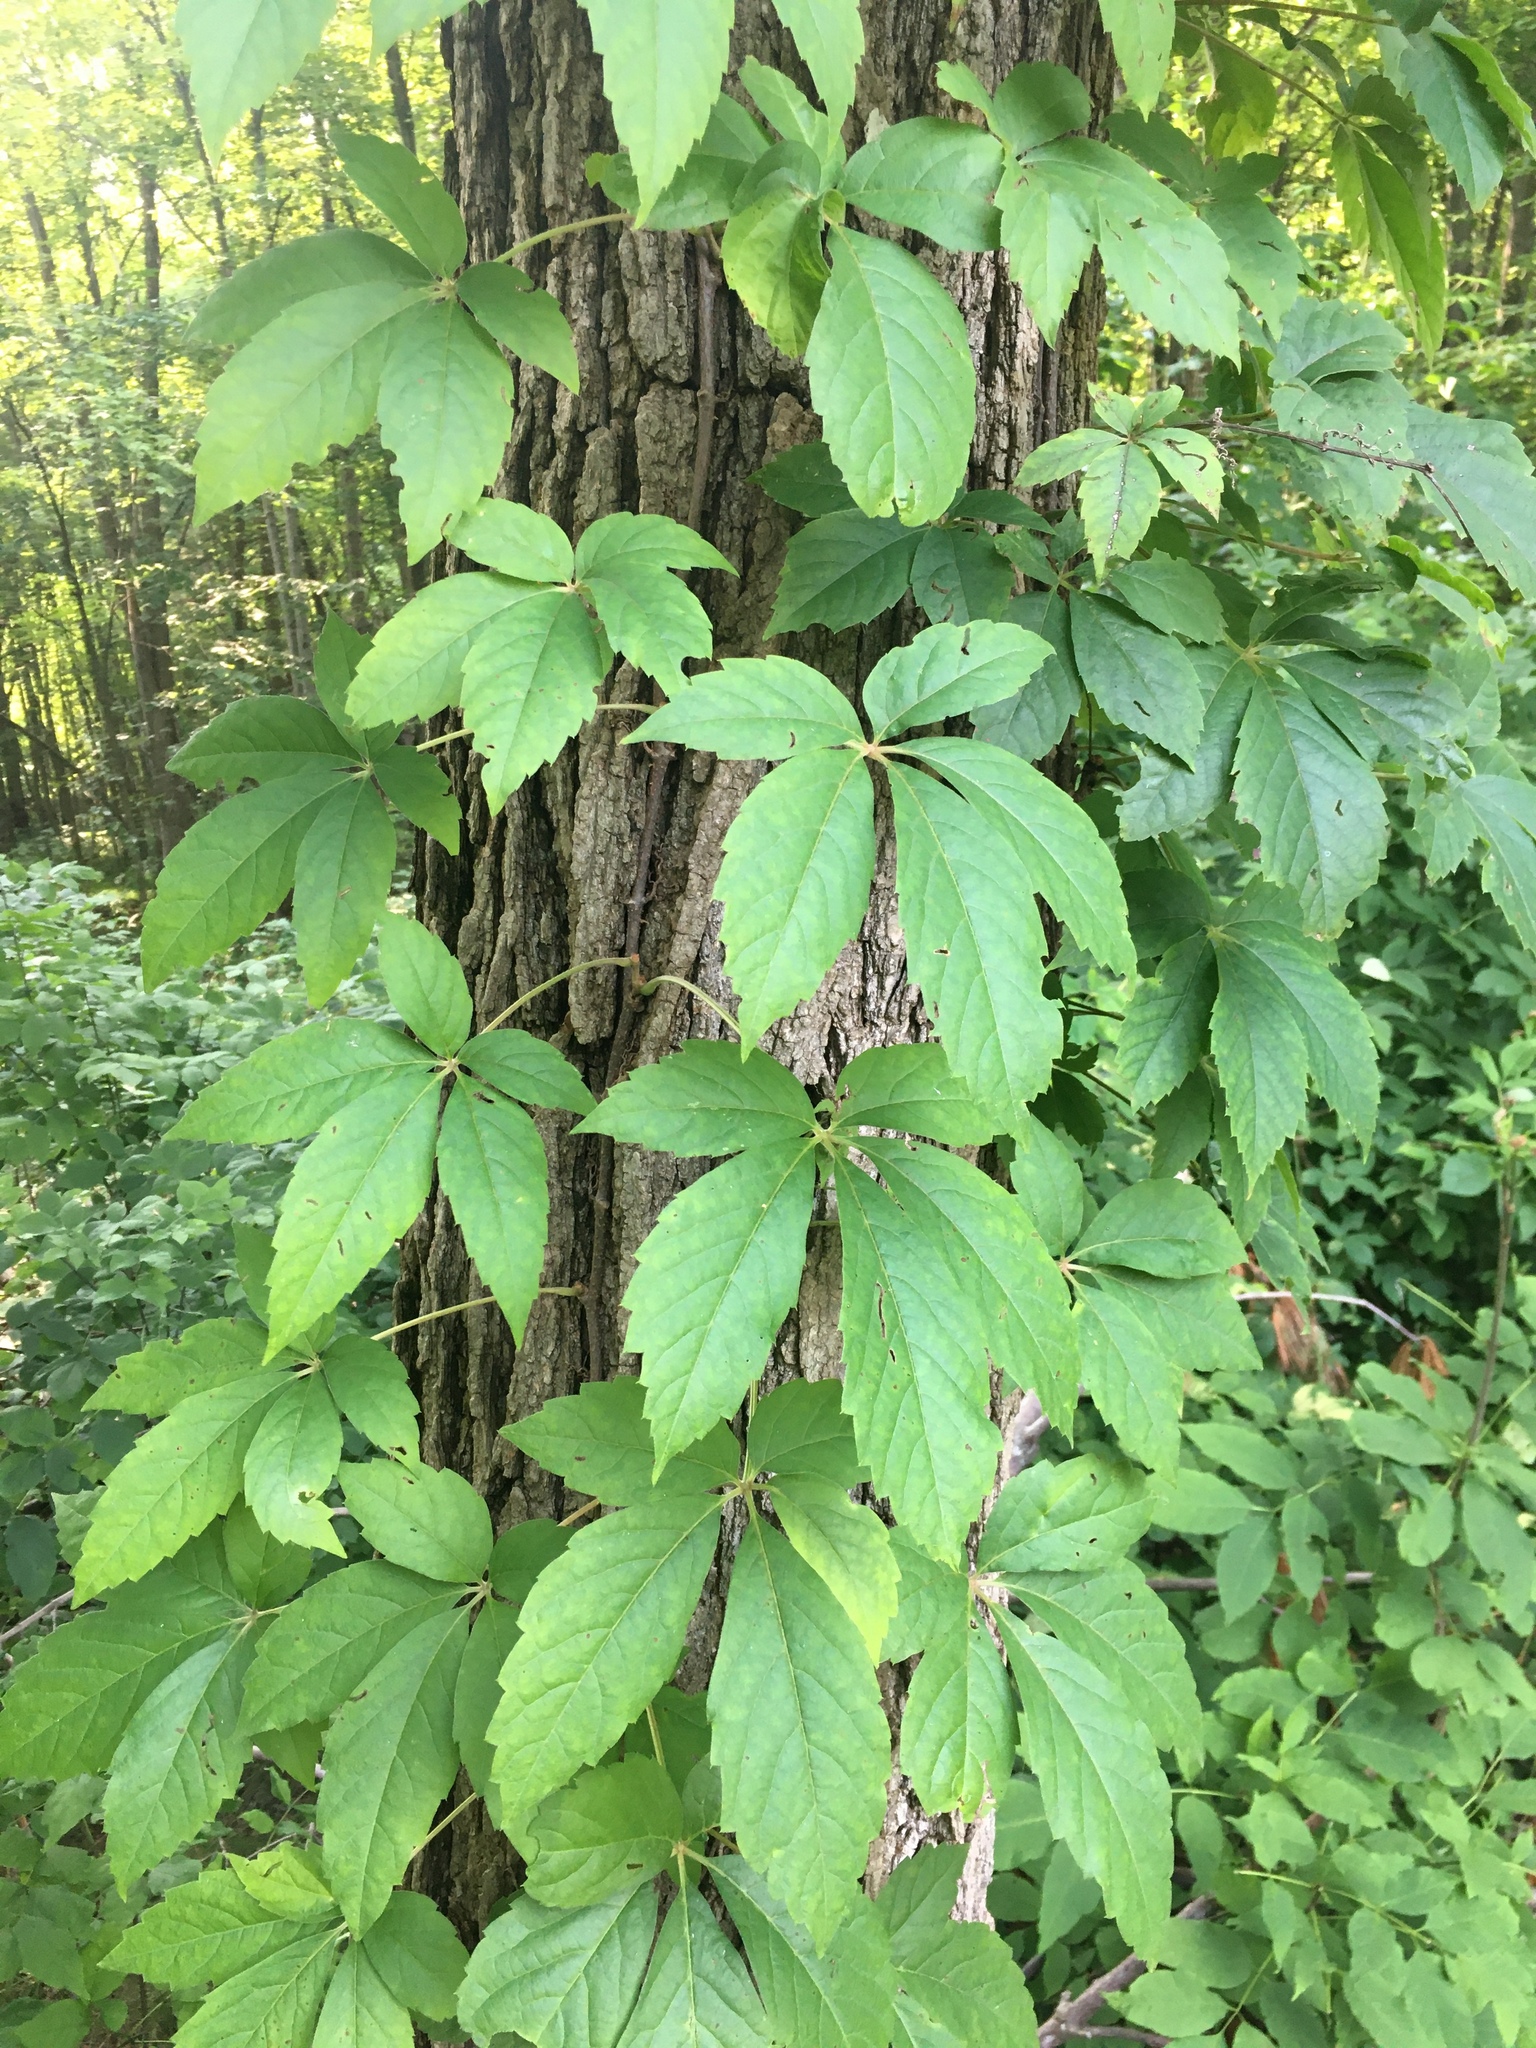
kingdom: Plantae
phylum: Tracheophyta
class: Magnoliopsida
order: Vitales
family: Vitaceae
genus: Parthenocissus
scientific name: Parthenocissus quinquefolia
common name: Virginia-creeper
